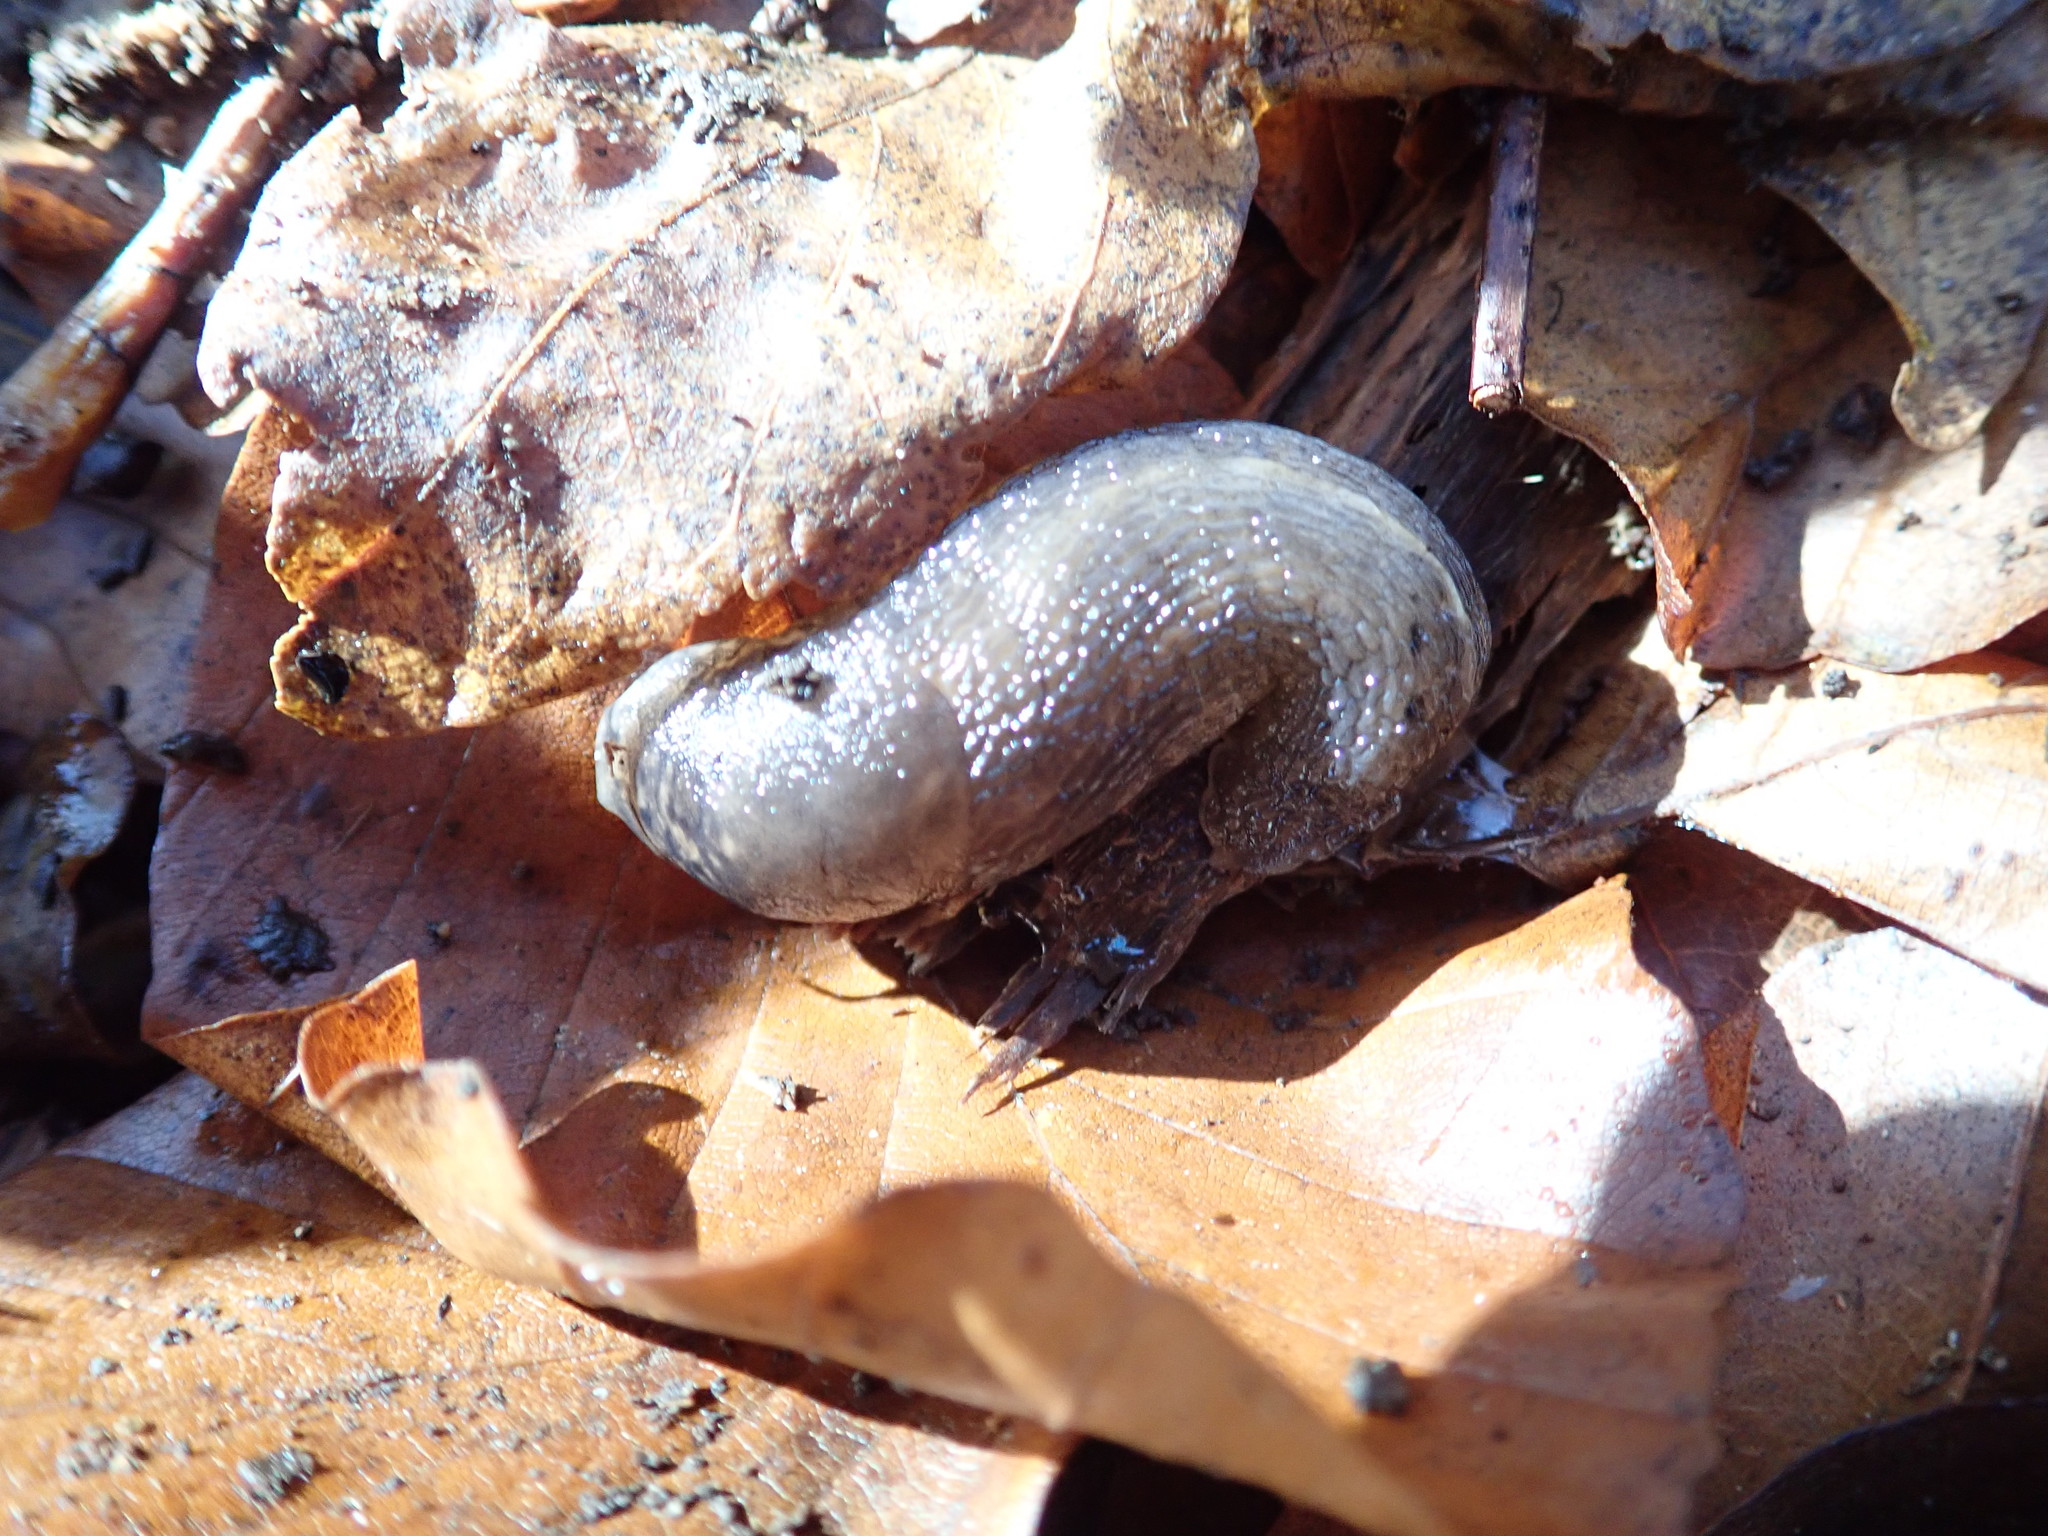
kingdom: Animalia
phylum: Mollusca
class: Gastropoda
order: Stylommatophora
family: Limacidae
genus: Limax
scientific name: Limax maximus
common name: Great grey slug
